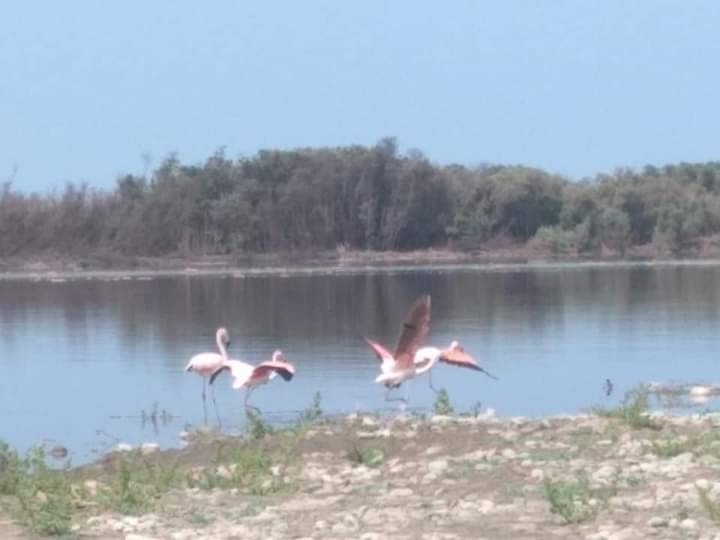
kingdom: Animalia
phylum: Chordata
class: Aves
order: Phoenicopteriformes
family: Phoenicopteridae
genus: Phoenicopterus
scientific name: Phoenicopterus chilensis
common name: Chilean flamingo
